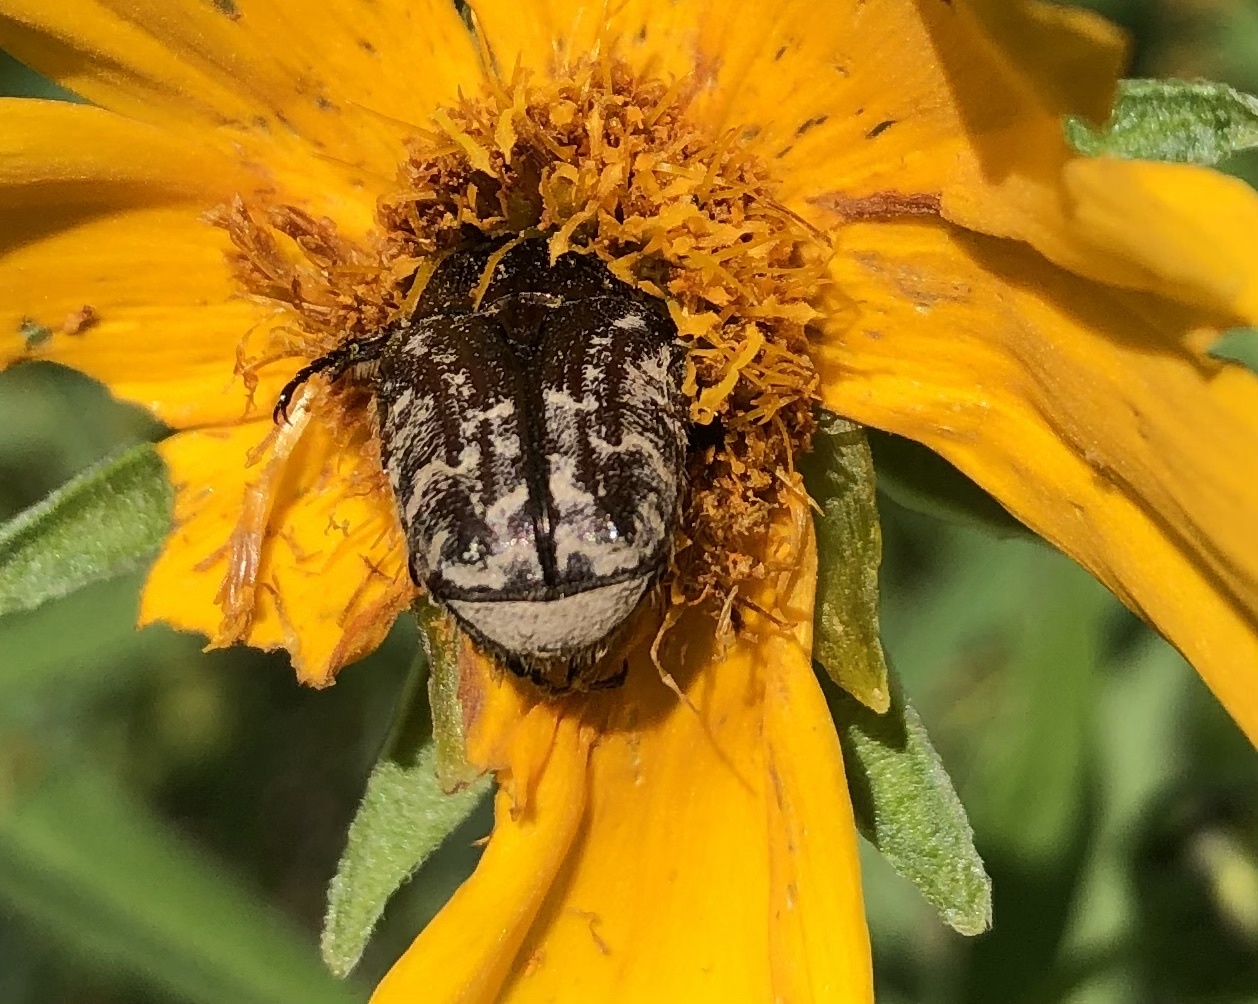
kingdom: Animalia
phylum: Arthropoda
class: Insecta
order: Coleoptera
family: Scarabaeidae
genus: Euphoria
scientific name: Euphoria sepulcralis
